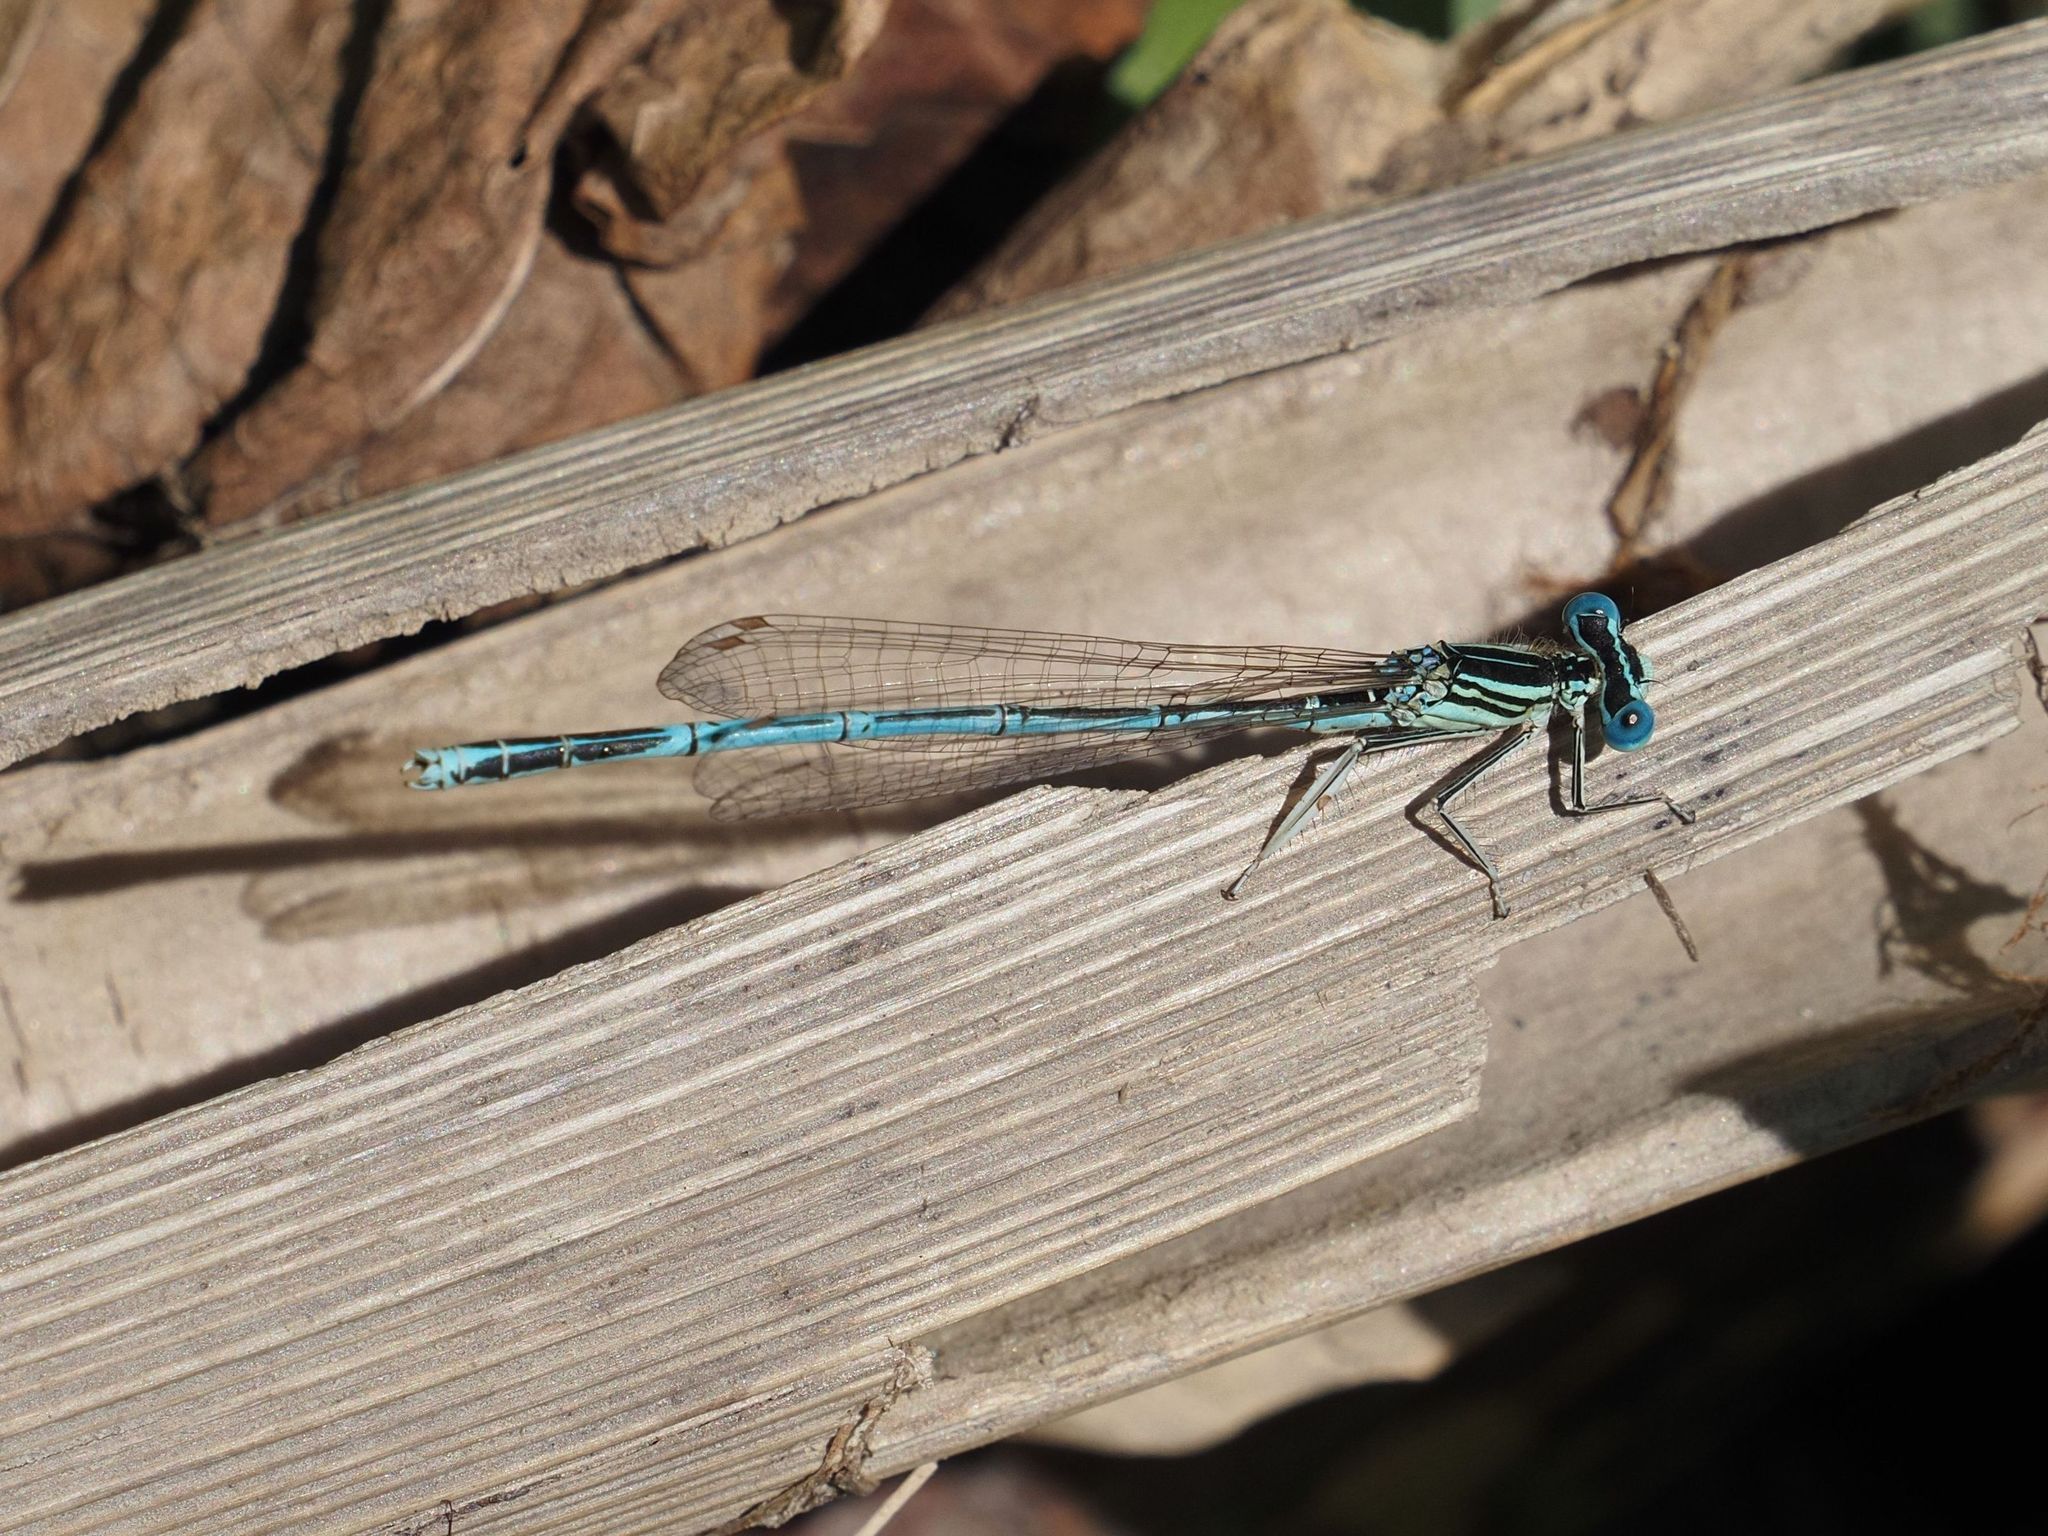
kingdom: Animalia
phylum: Arthropoda
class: Insecta
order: Odonata
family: Platycnemididae
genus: Platycnemis
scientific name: Platycnemis pennipes
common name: White-legged damselfly
